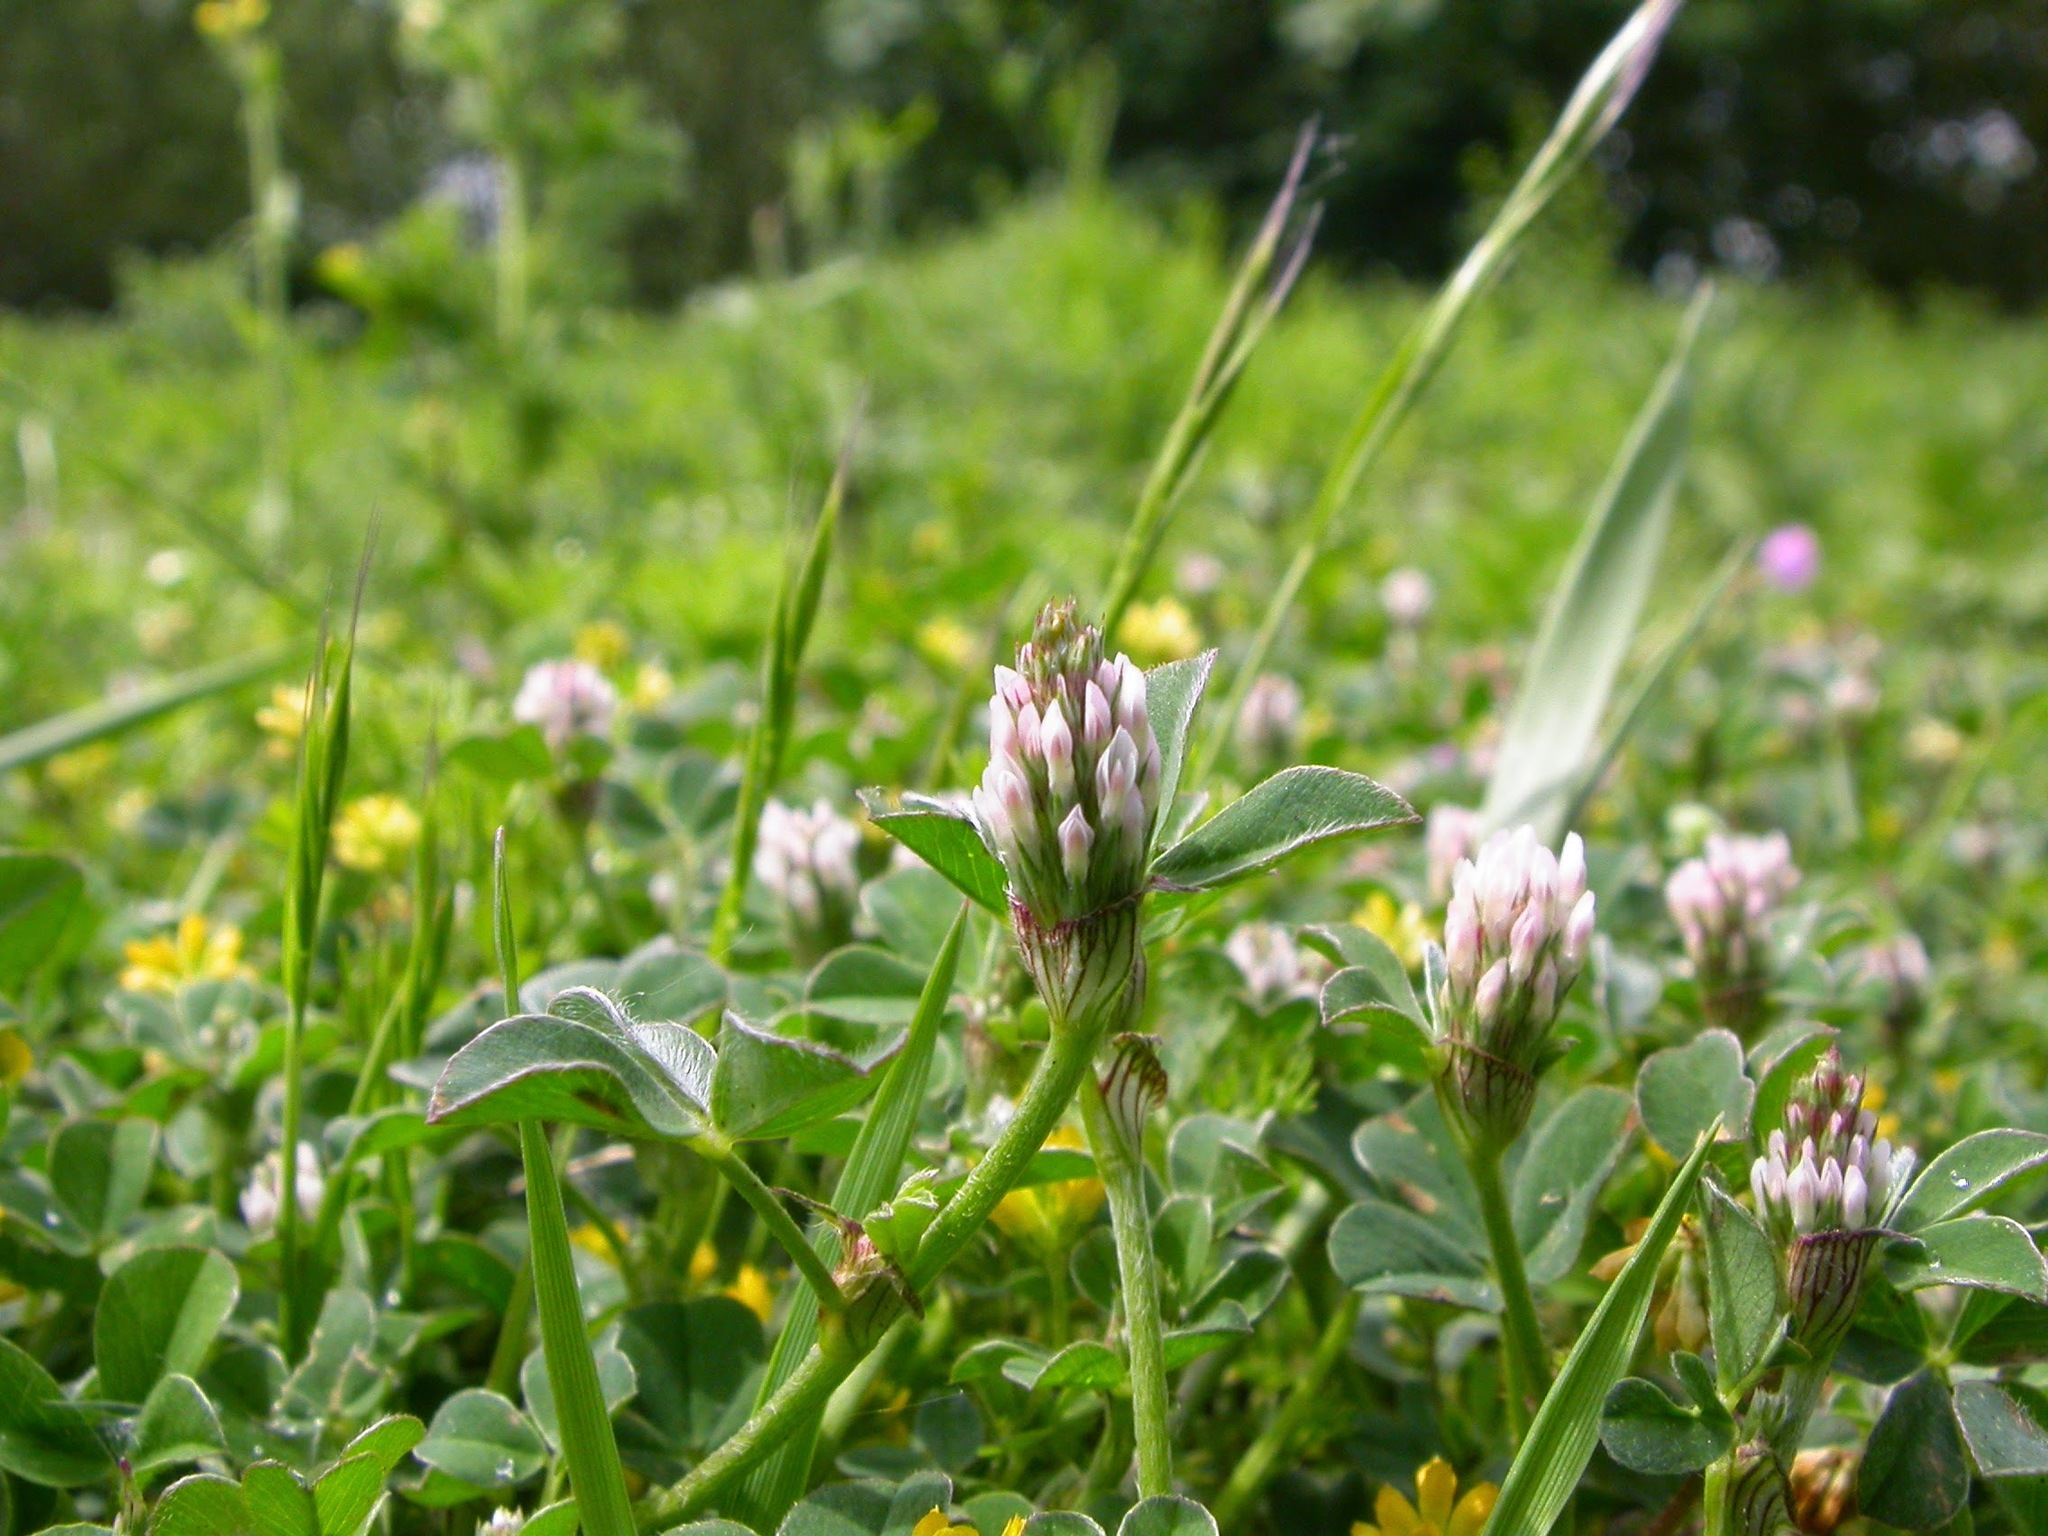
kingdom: Plantae
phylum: Tracheophyta
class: Magnoliopsida
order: Fabales
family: Fabaceae
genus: Trifolium
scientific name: Trifolium striatum
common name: Knotted clover
